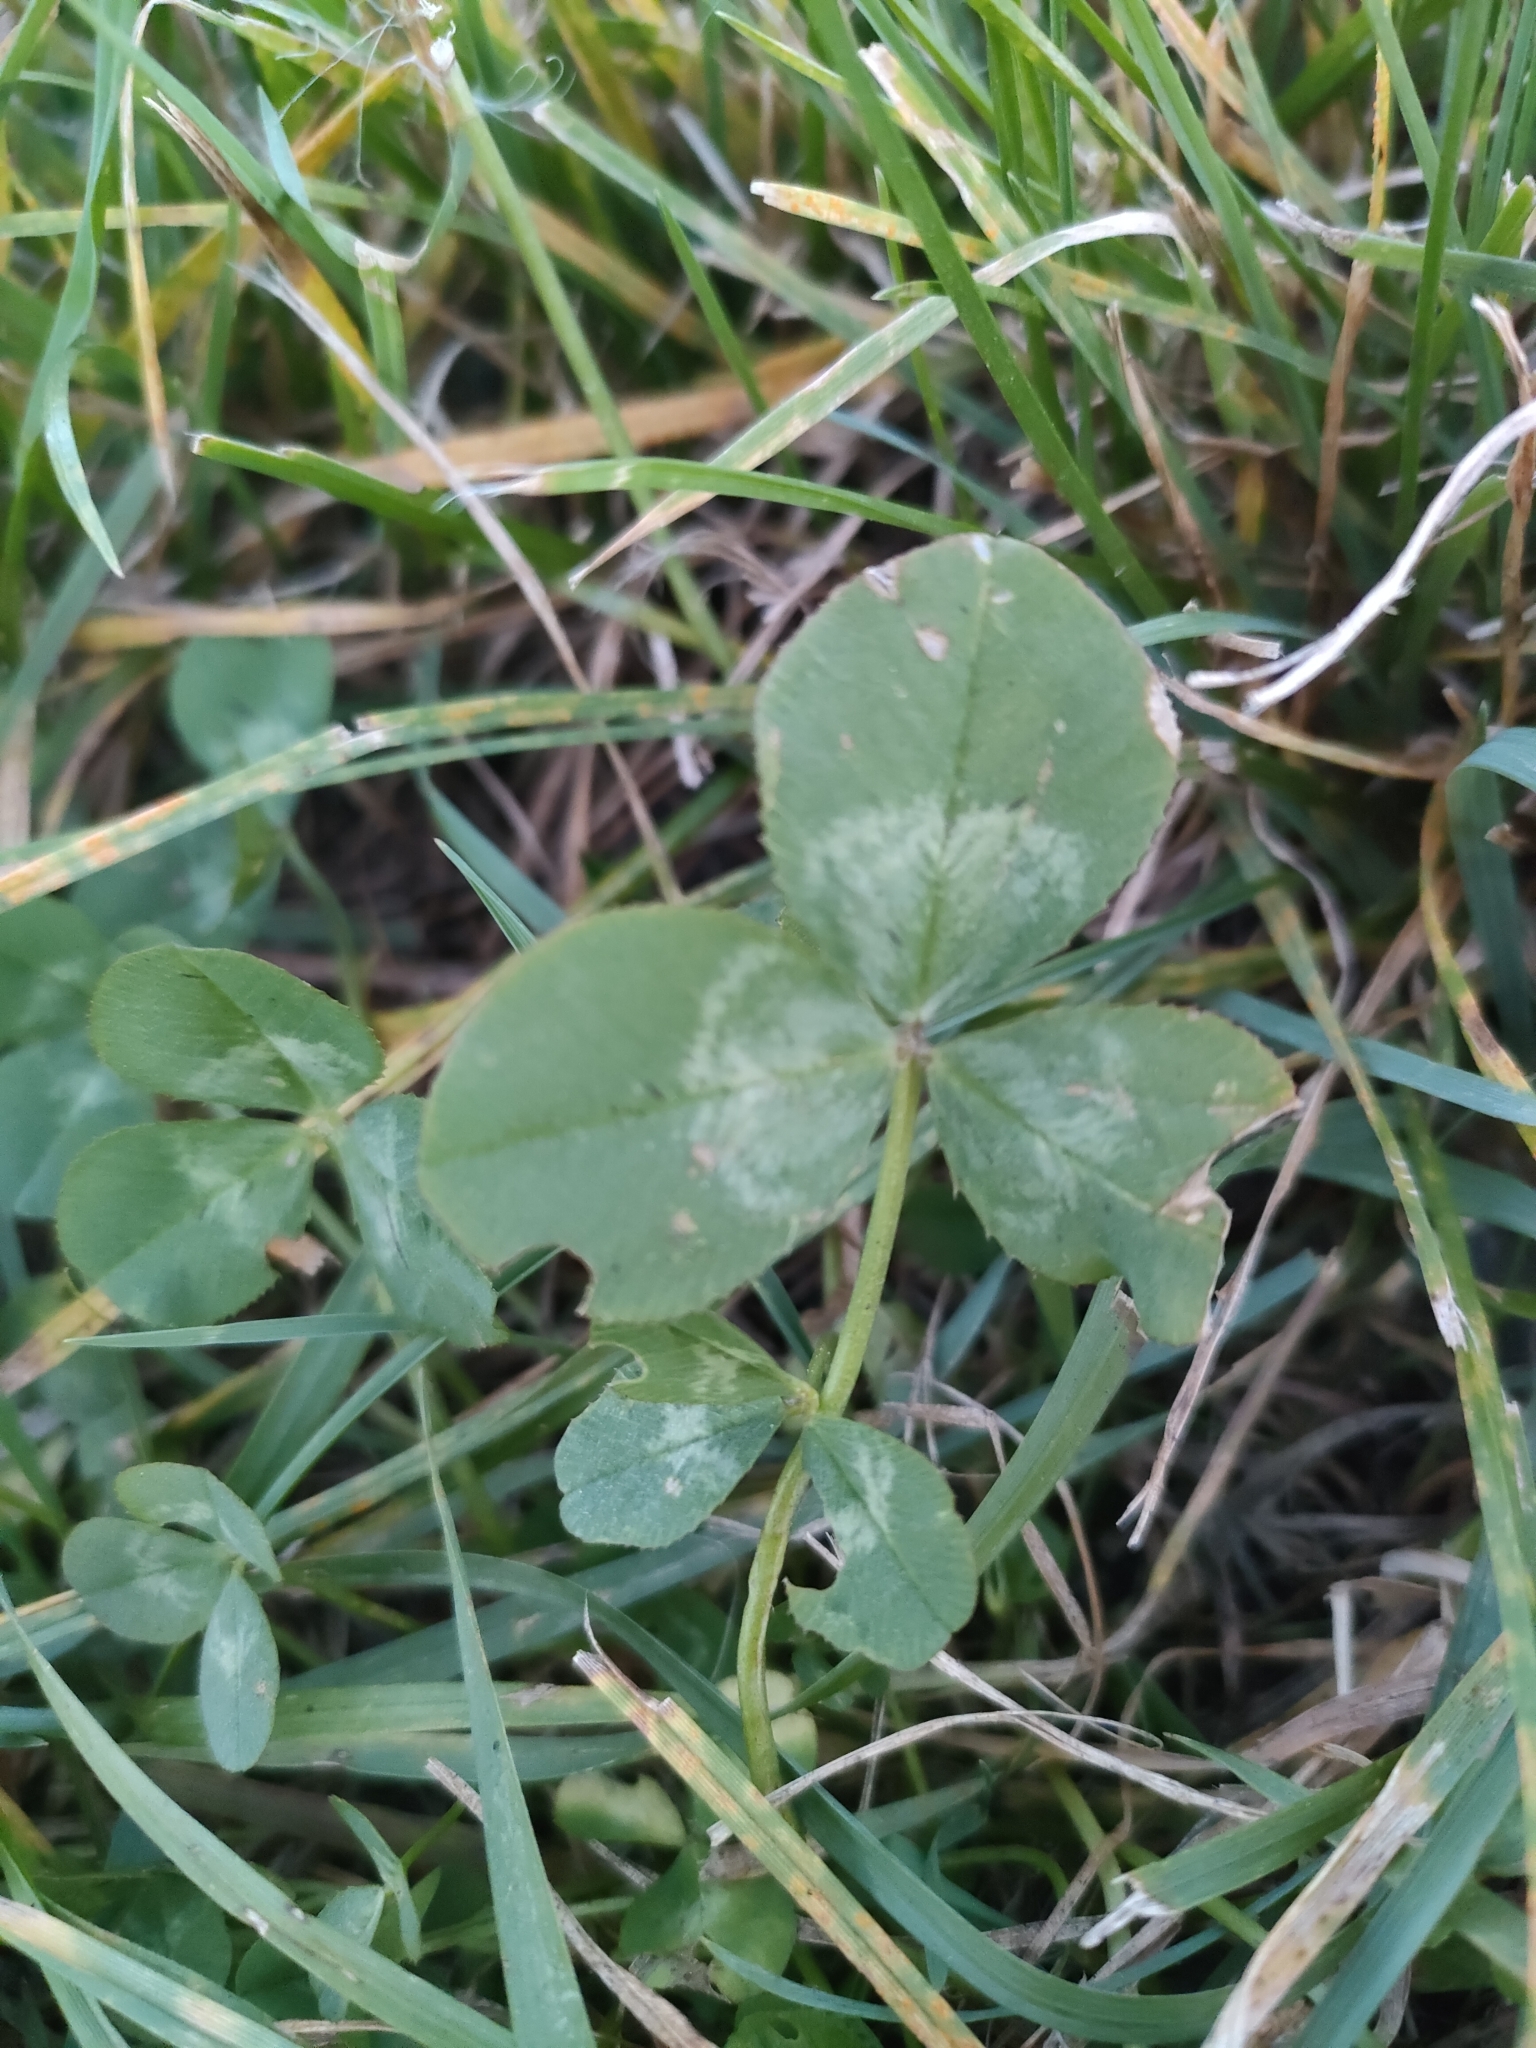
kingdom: Plantae
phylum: Tracheophyta
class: Magnoliopsida
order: Fabales
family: Fabaceae
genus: Trifolium
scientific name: Trifolium repens
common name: White clover
